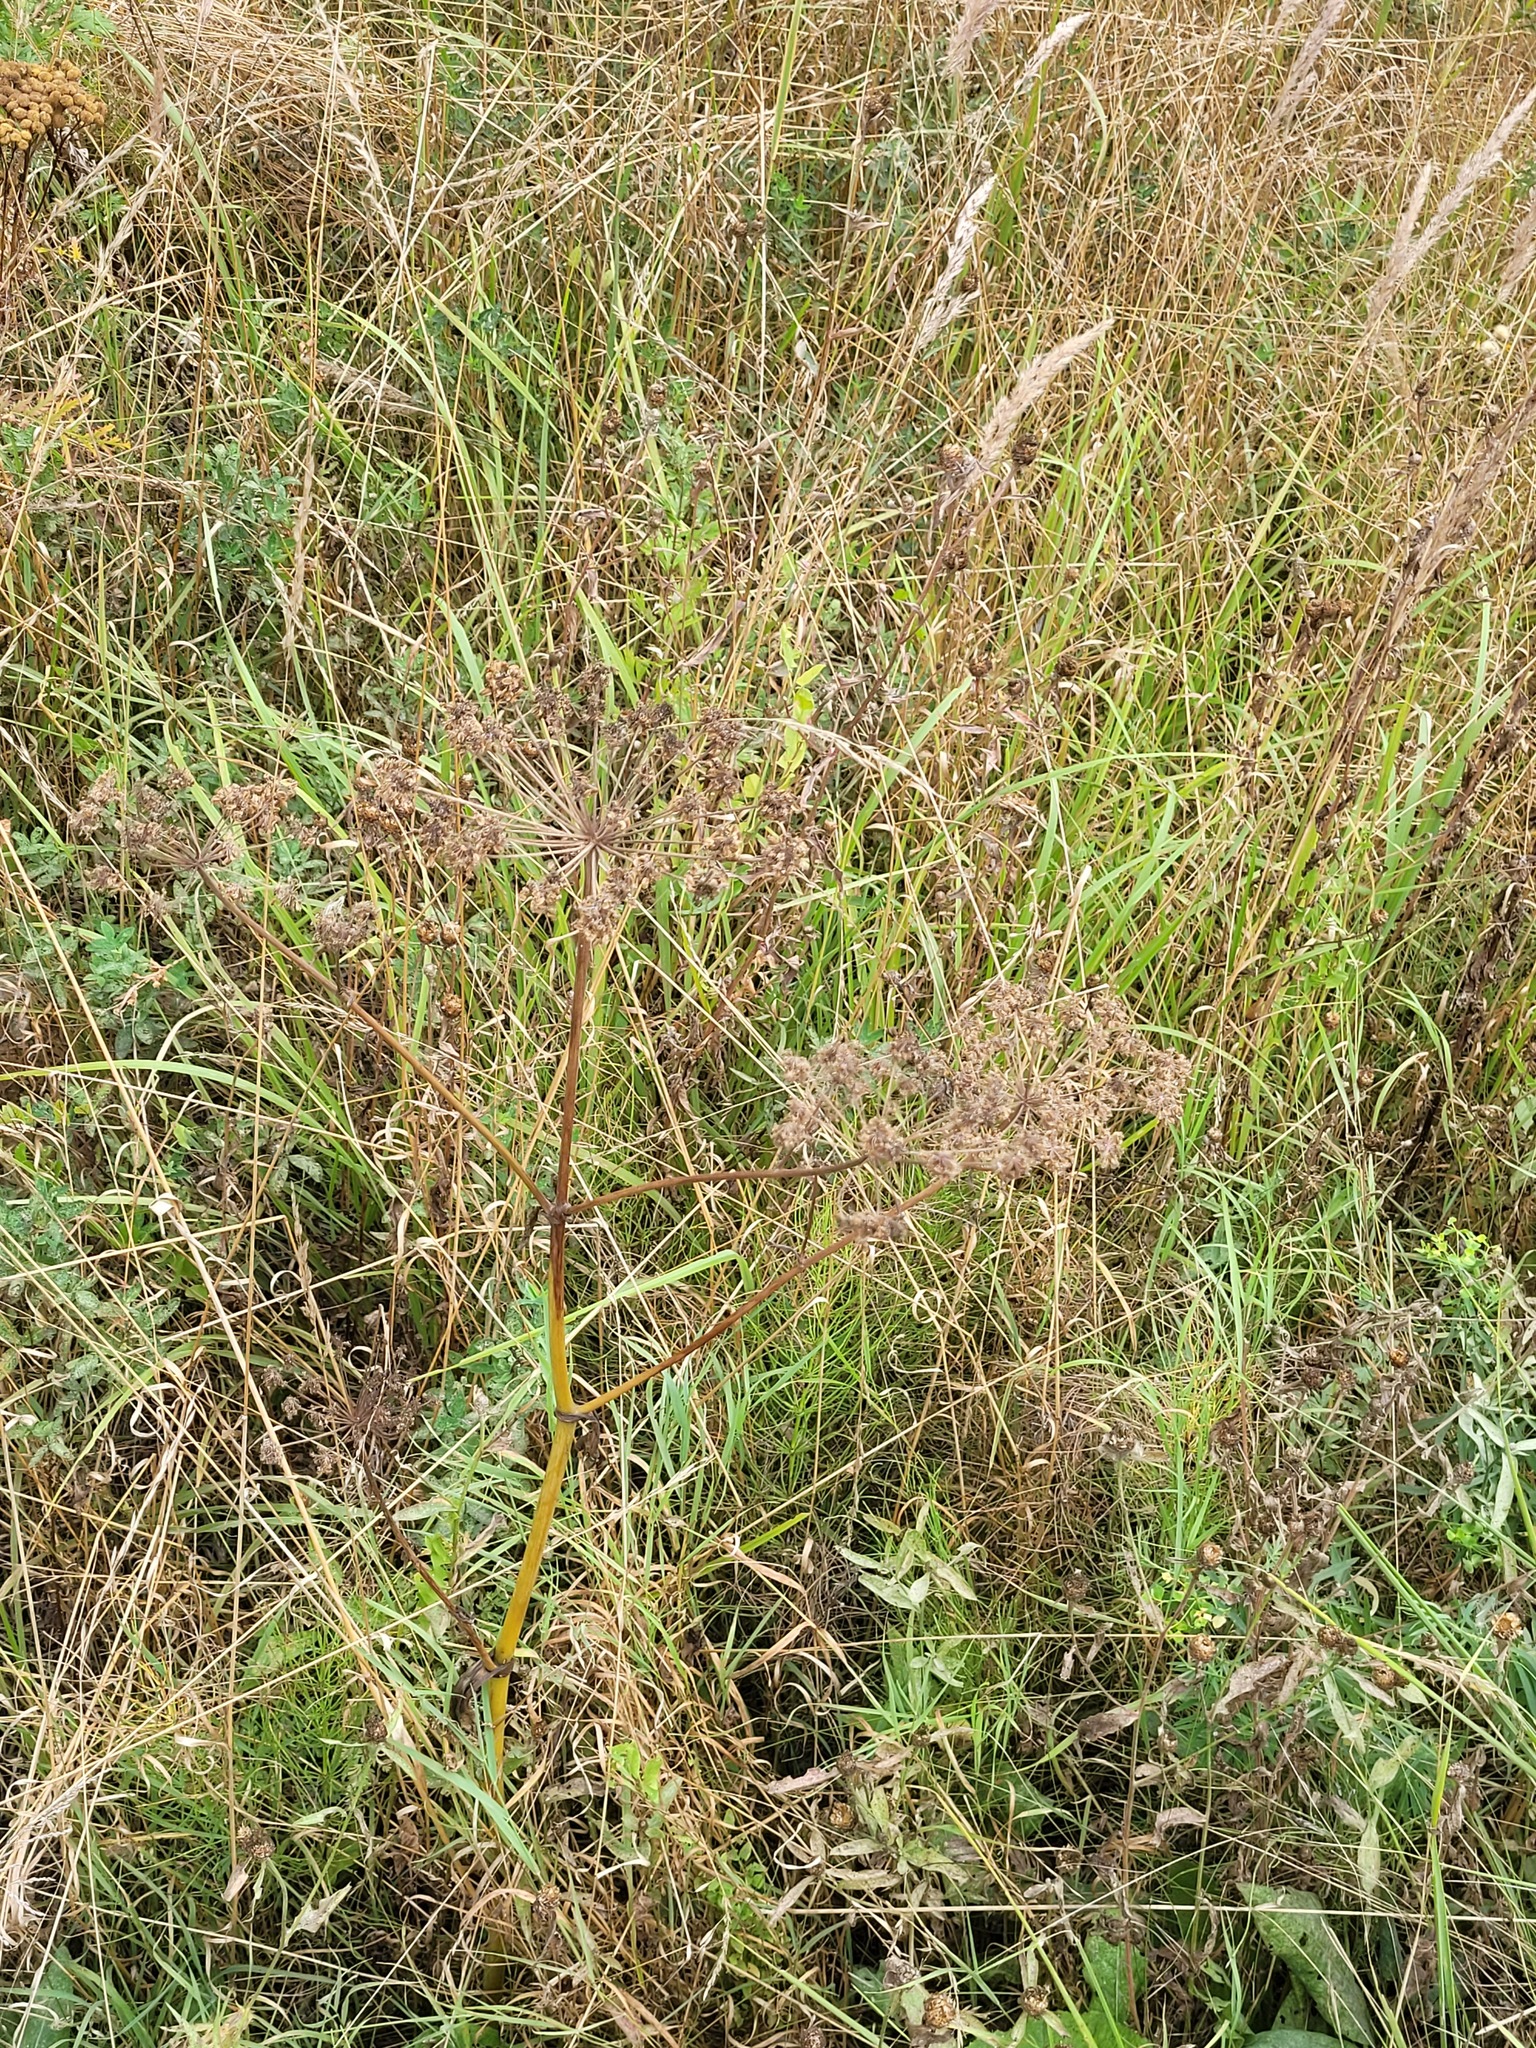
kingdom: Plantae
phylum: Tracheophyta
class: Magnoliopsida
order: Apiales
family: Apiaceae
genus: Angelica
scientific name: Angelica sylvestris
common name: Wild angelica
